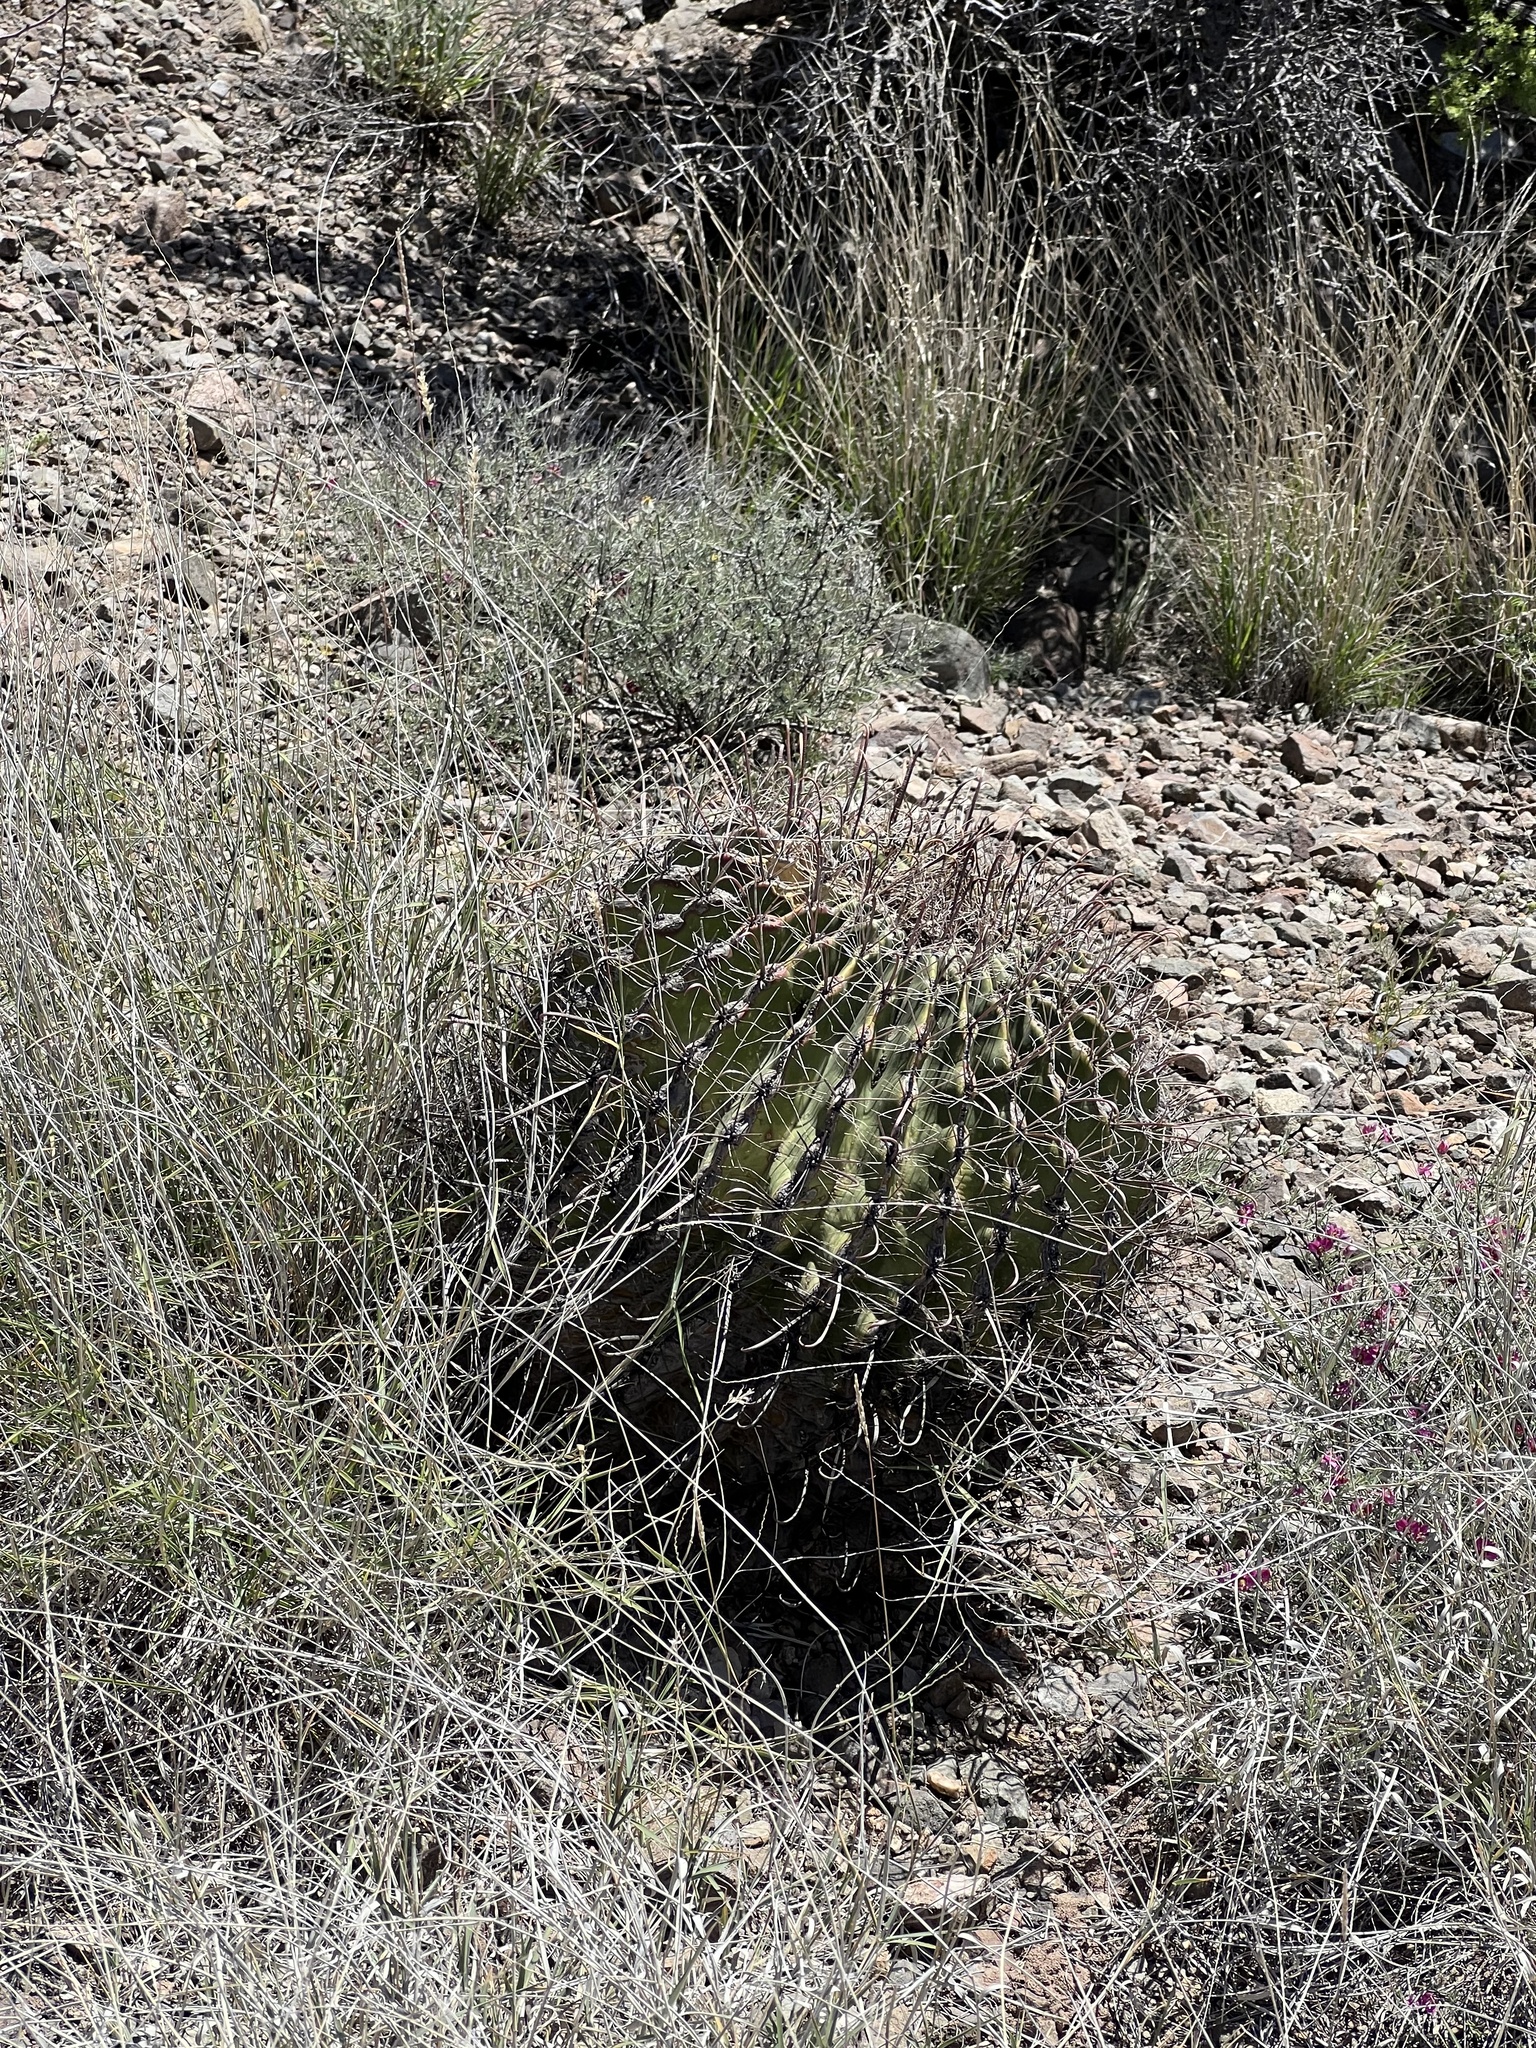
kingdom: Plantae
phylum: Tracheophyta
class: Magnoliopsida
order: Caryophyllales
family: Cactaceae
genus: Ferocactus
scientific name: Ferocactus wislizeni
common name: Candy barrel cactus
